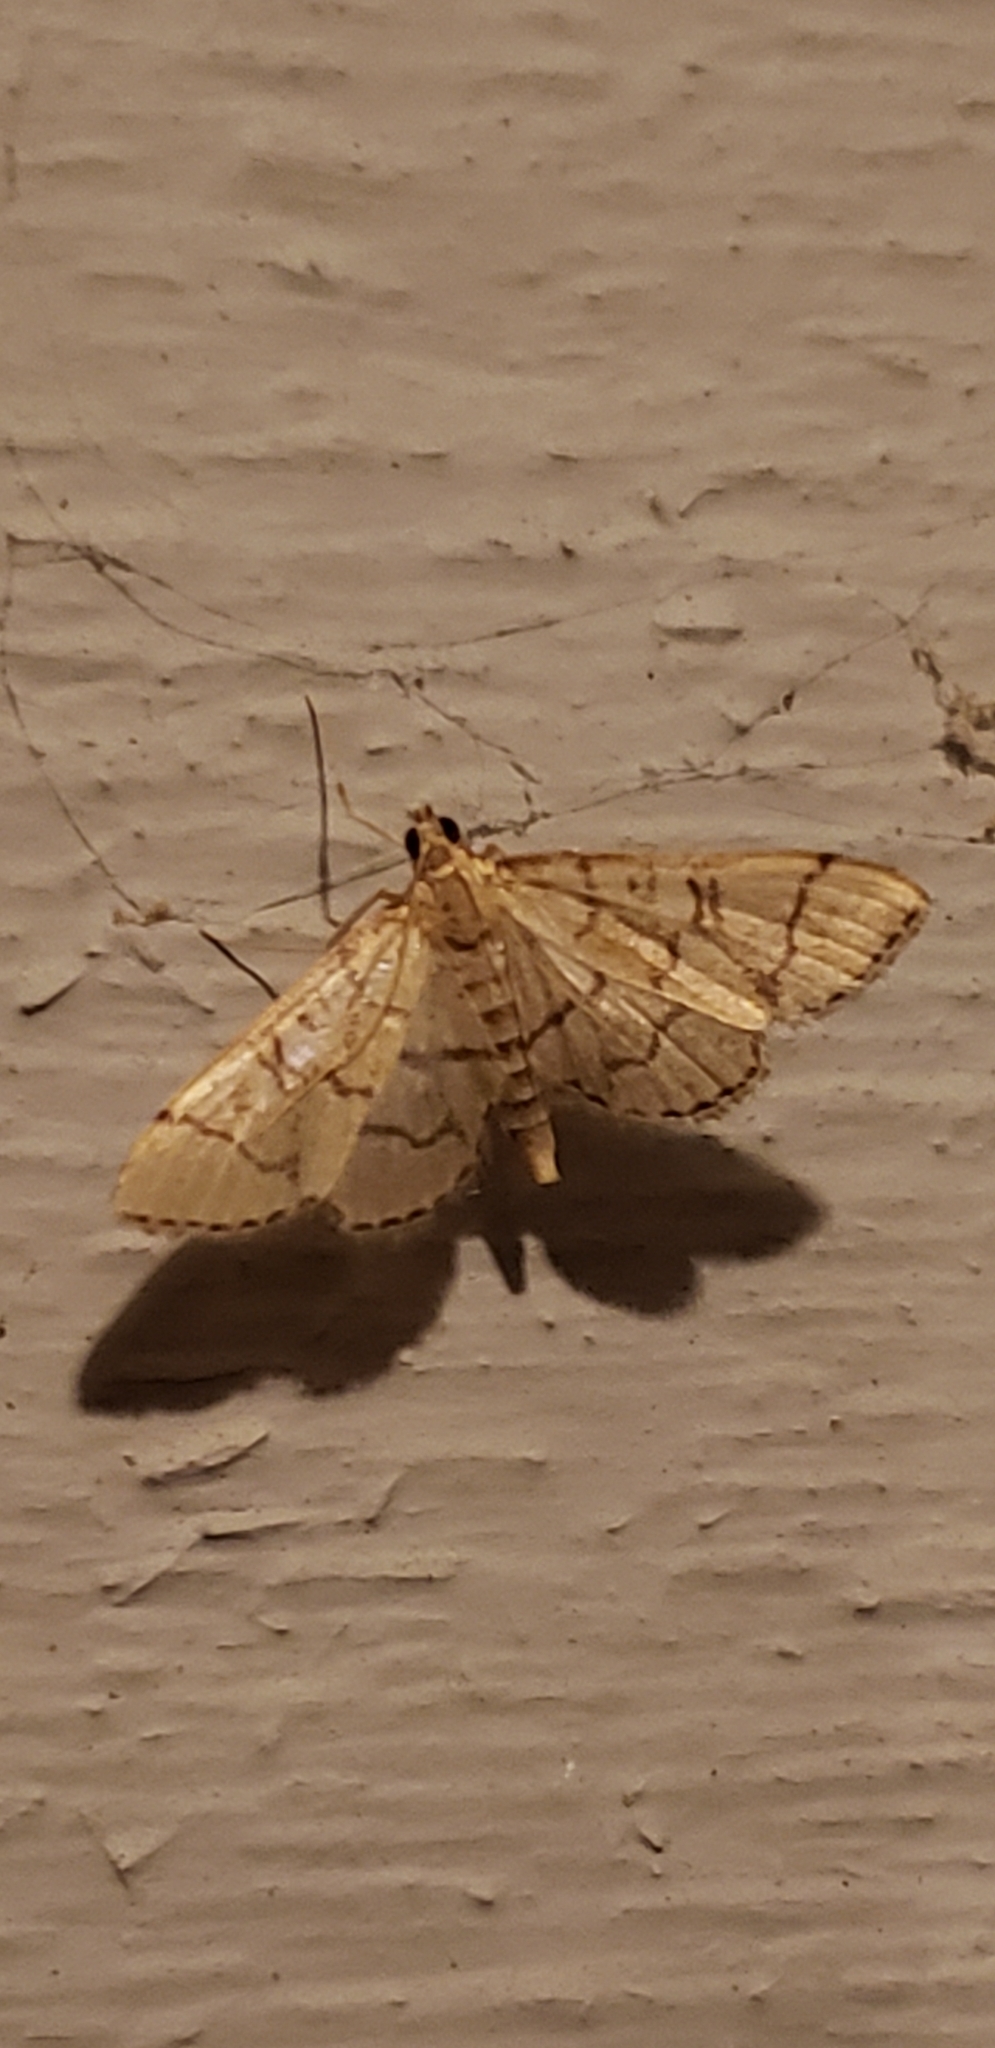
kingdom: Animalia
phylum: Arthropoda
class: Insecta
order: Lepidoptera
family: Crambidae
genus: Lamprosema
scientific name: Lamprosema Blepharomastix ranalis
